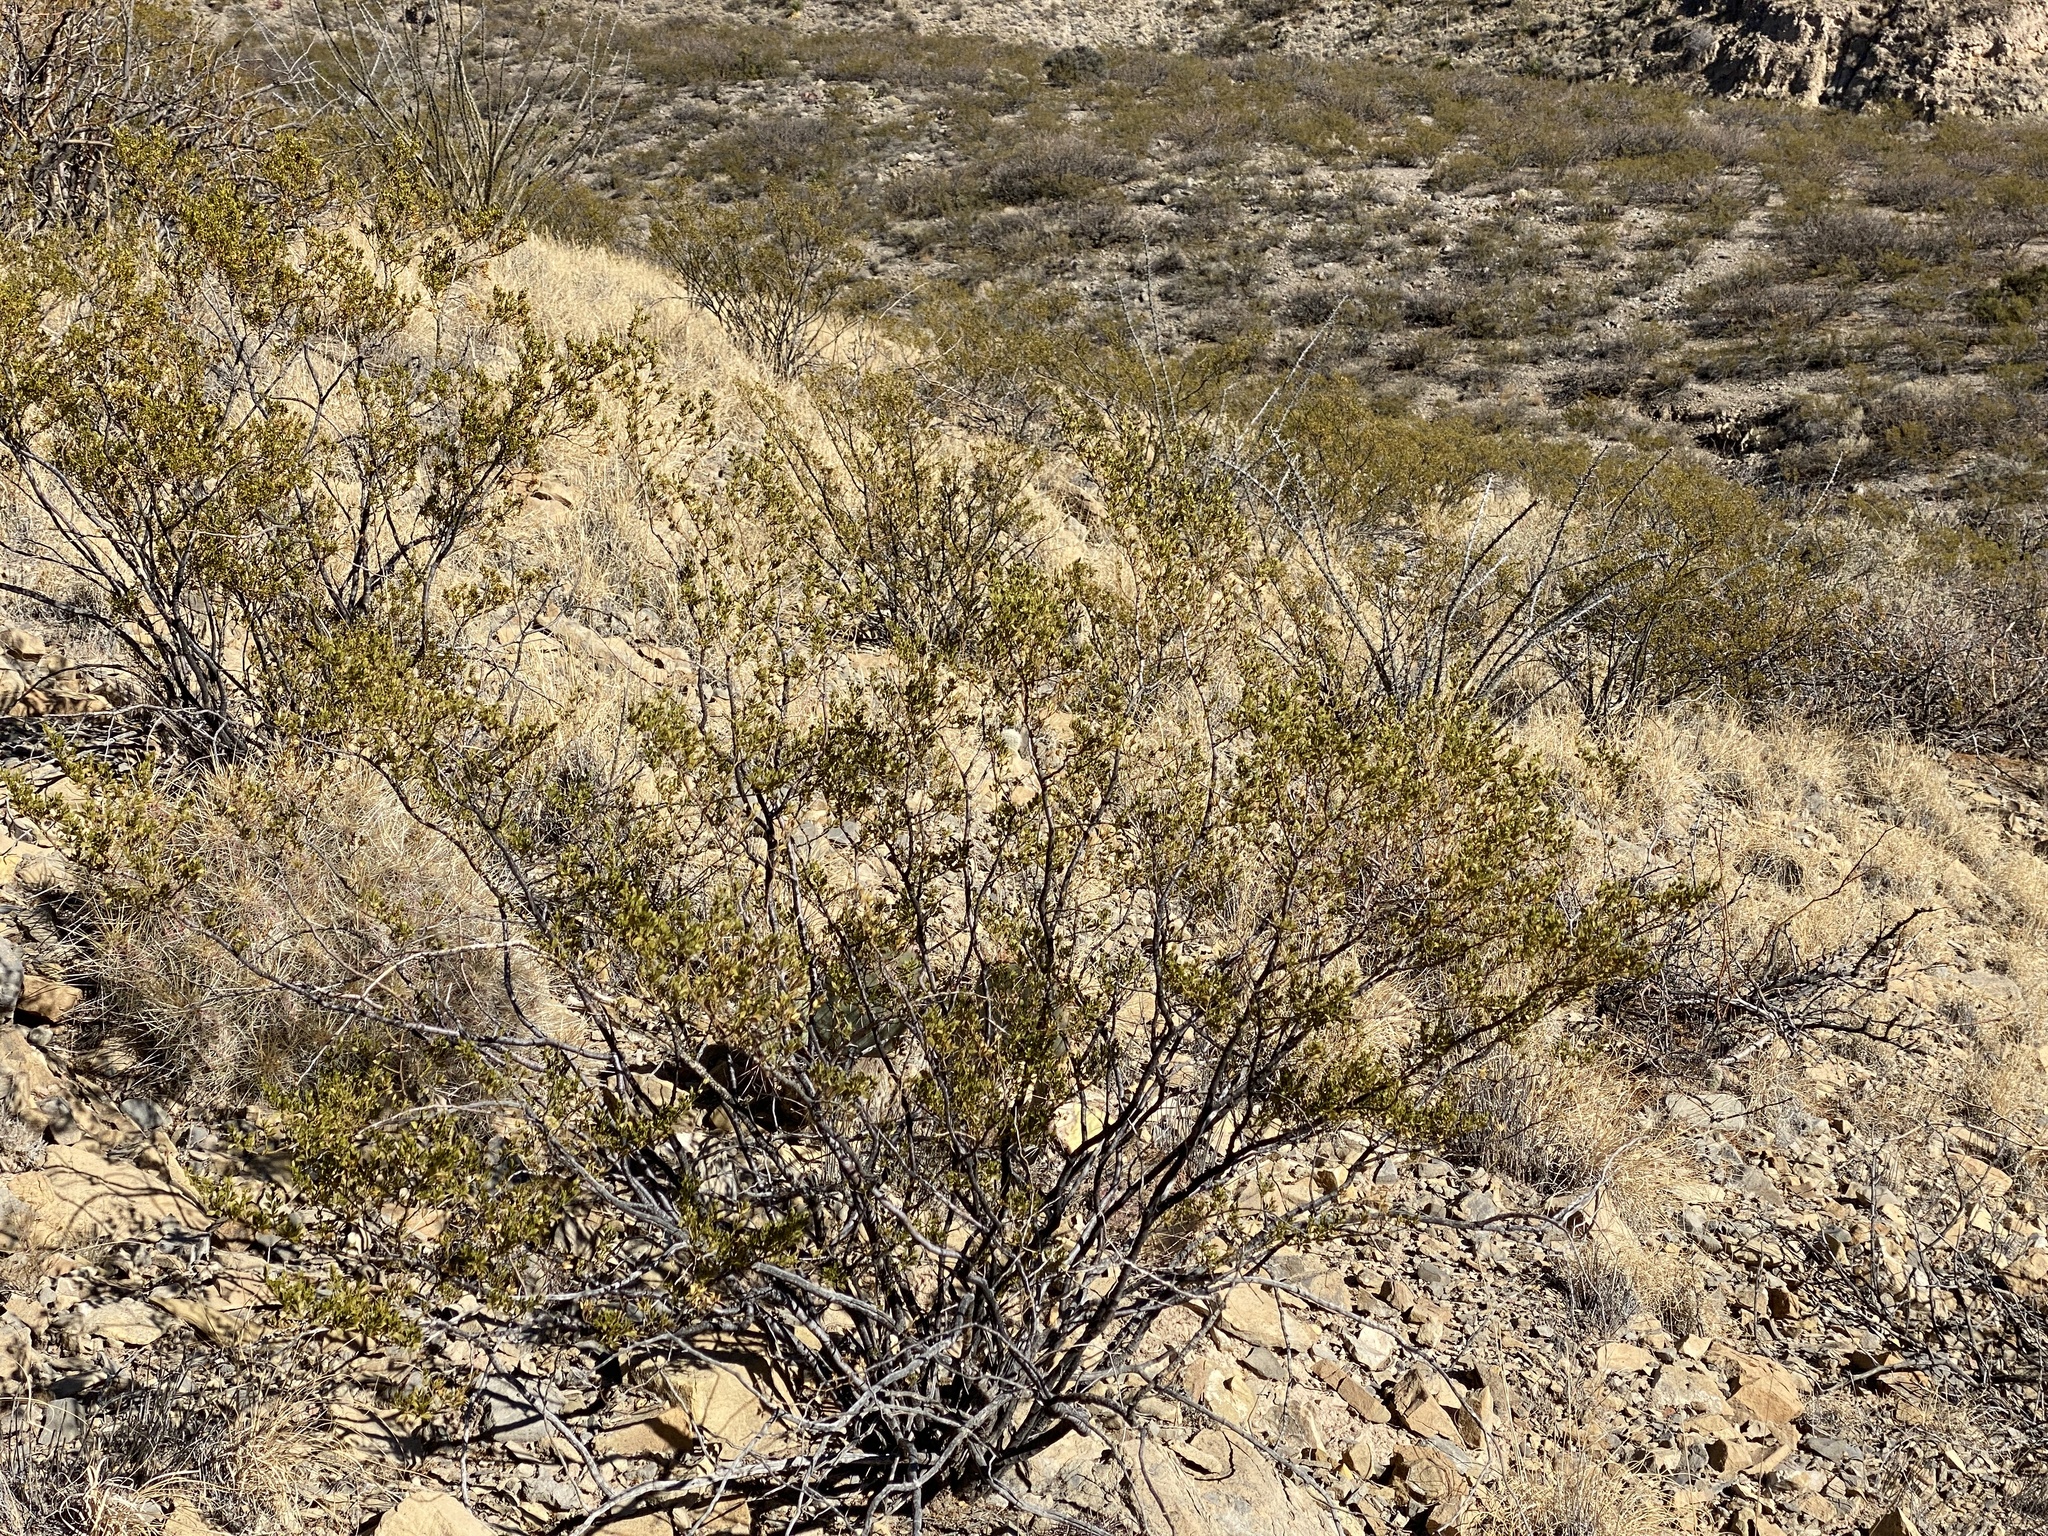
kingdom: Plantae
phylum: Tracheophyta
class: Magnoliopsida
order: Zygophyllales
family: Zygophyllaceae
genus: Larrea
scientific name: Larrea tridentata
